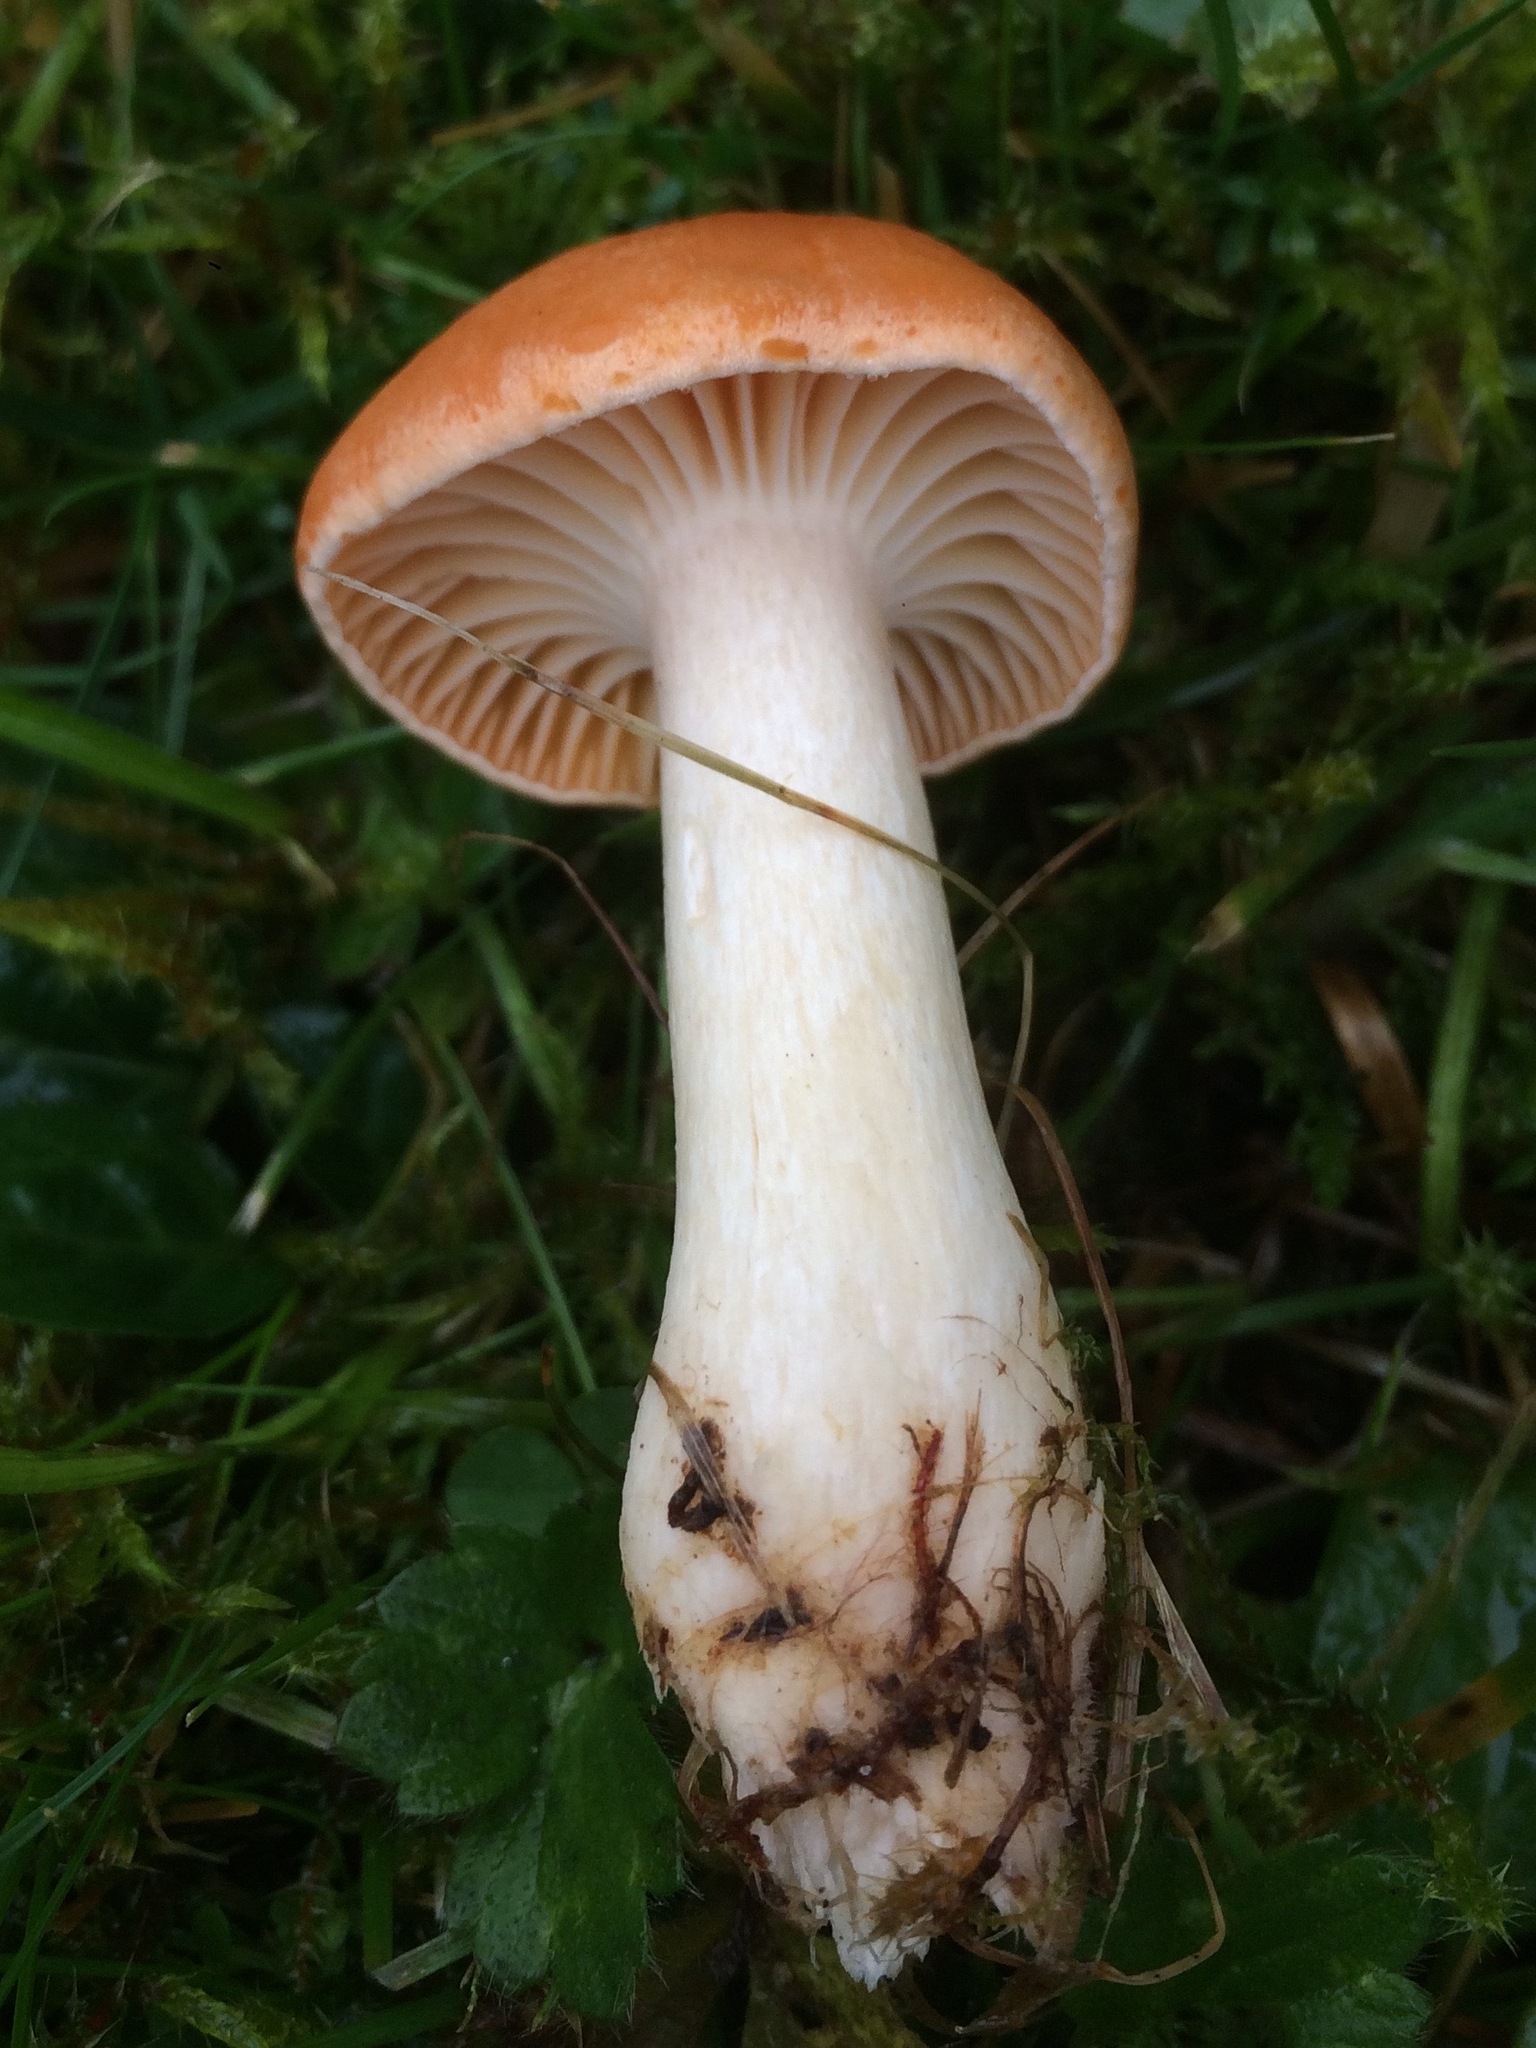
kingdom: Fungi
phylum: Basidiomycota
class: Agaricomycetes
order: Agaricales
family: Hygrophoraceae
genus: Cuphophyllus
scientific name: Cuphophyllus pratensis
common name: Meadow waxcap
